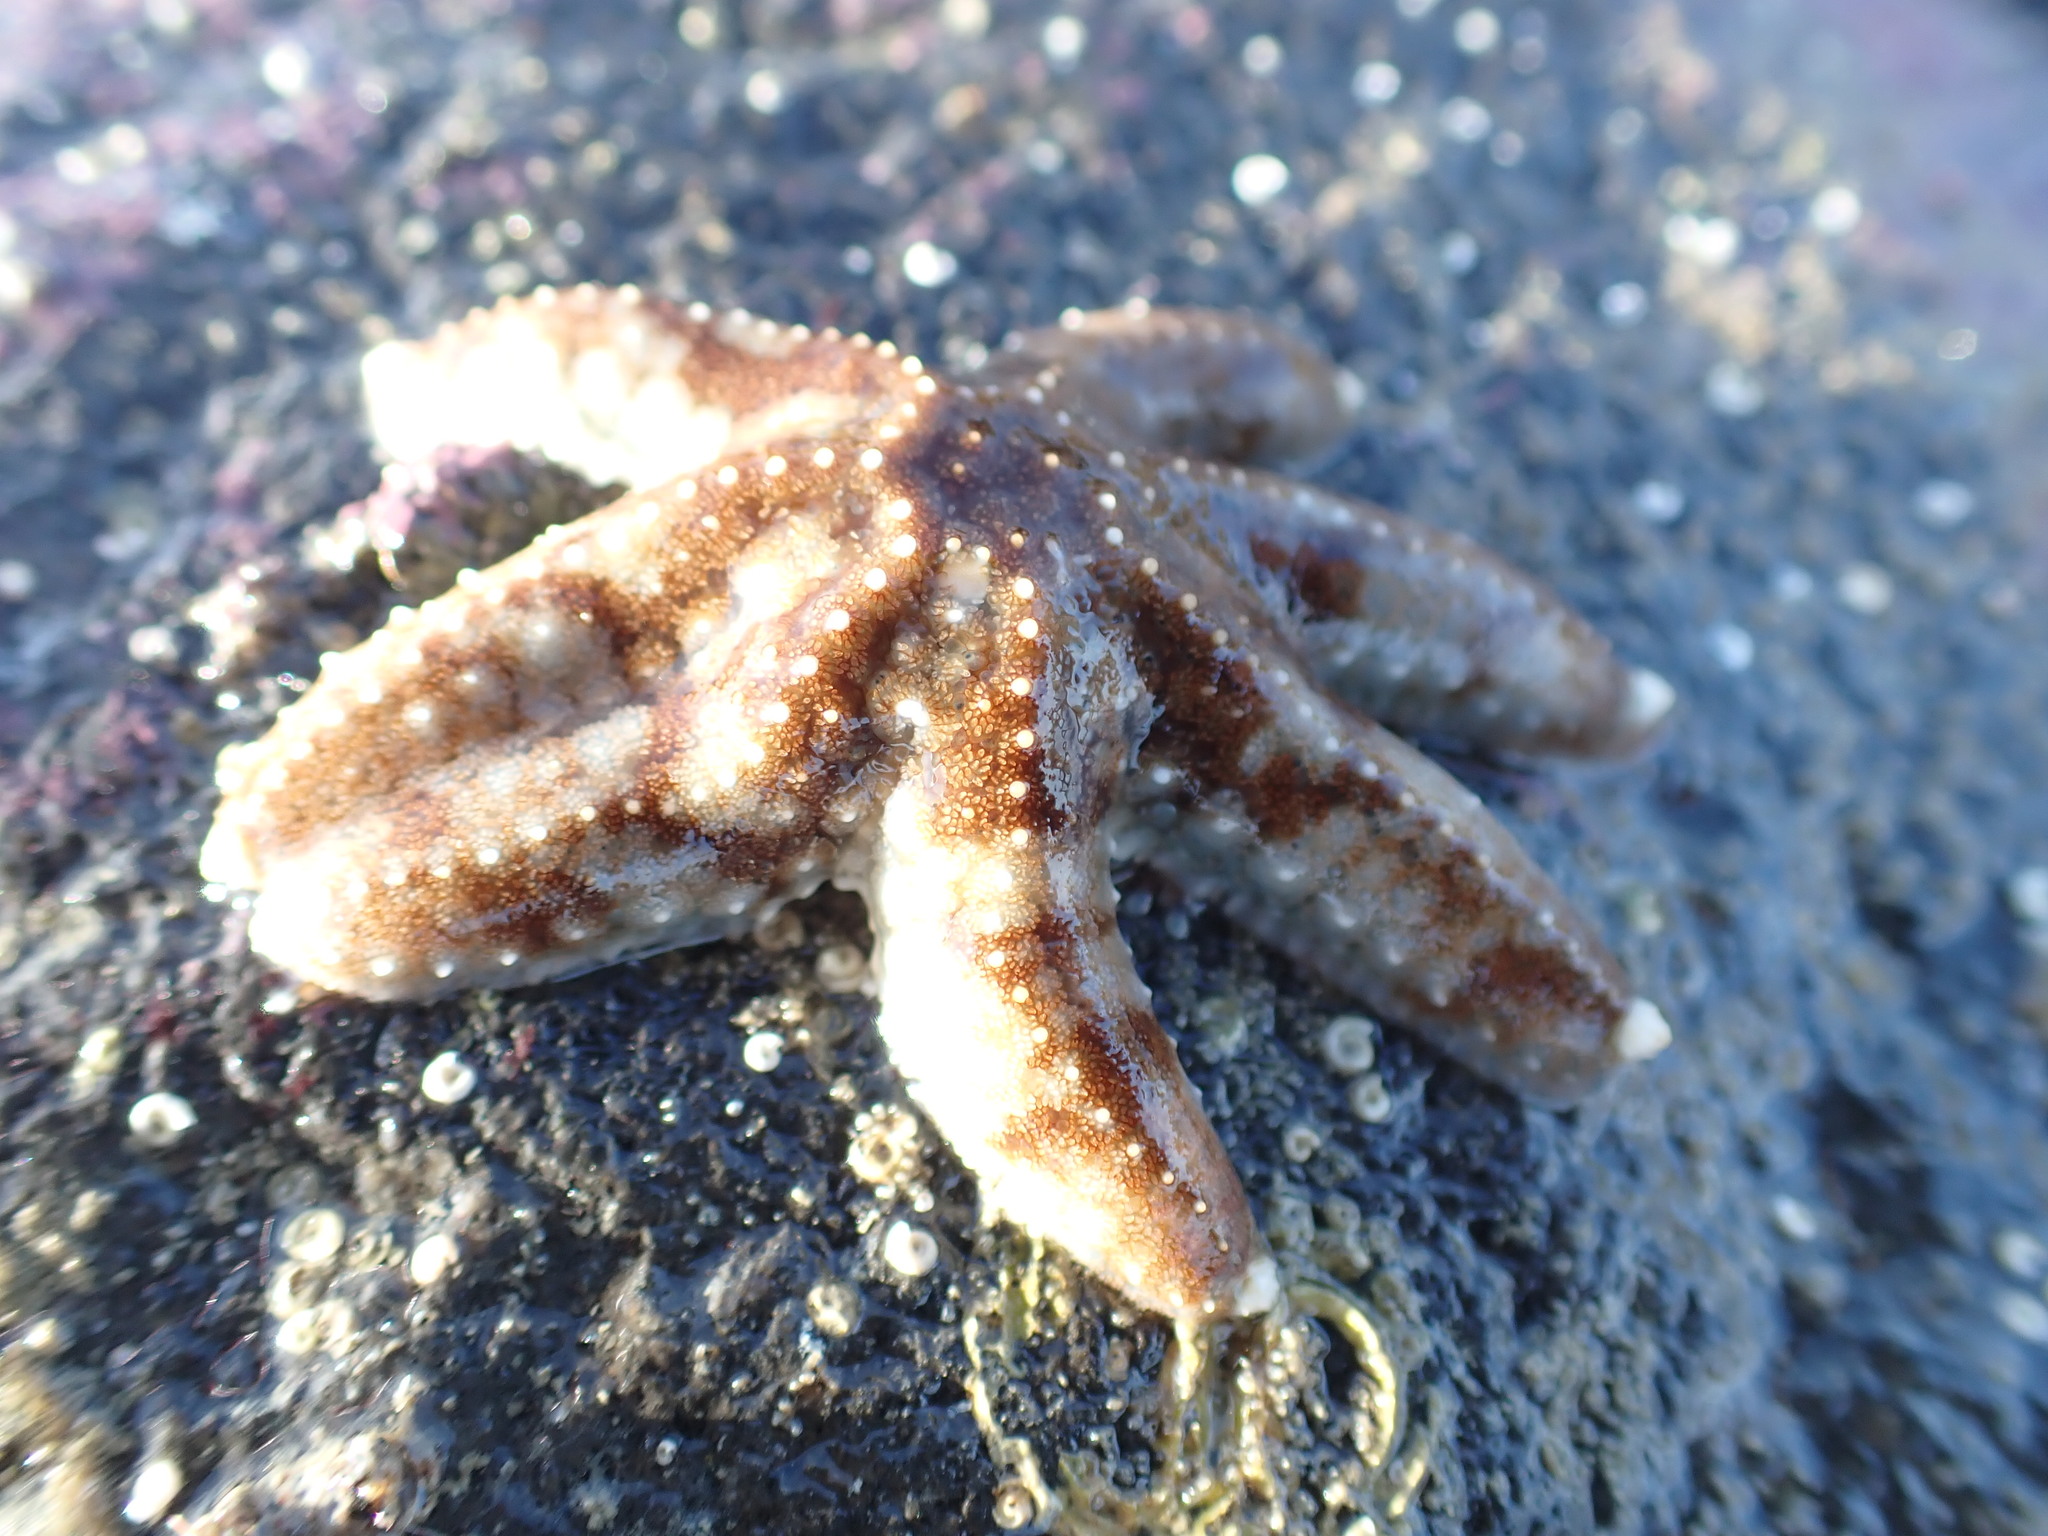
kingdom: Animalia
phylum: Echinodermata
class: Asteroidea
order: Forcipulatida
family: Asteriidae
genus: Astrostole
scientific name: Astrostole scabra
